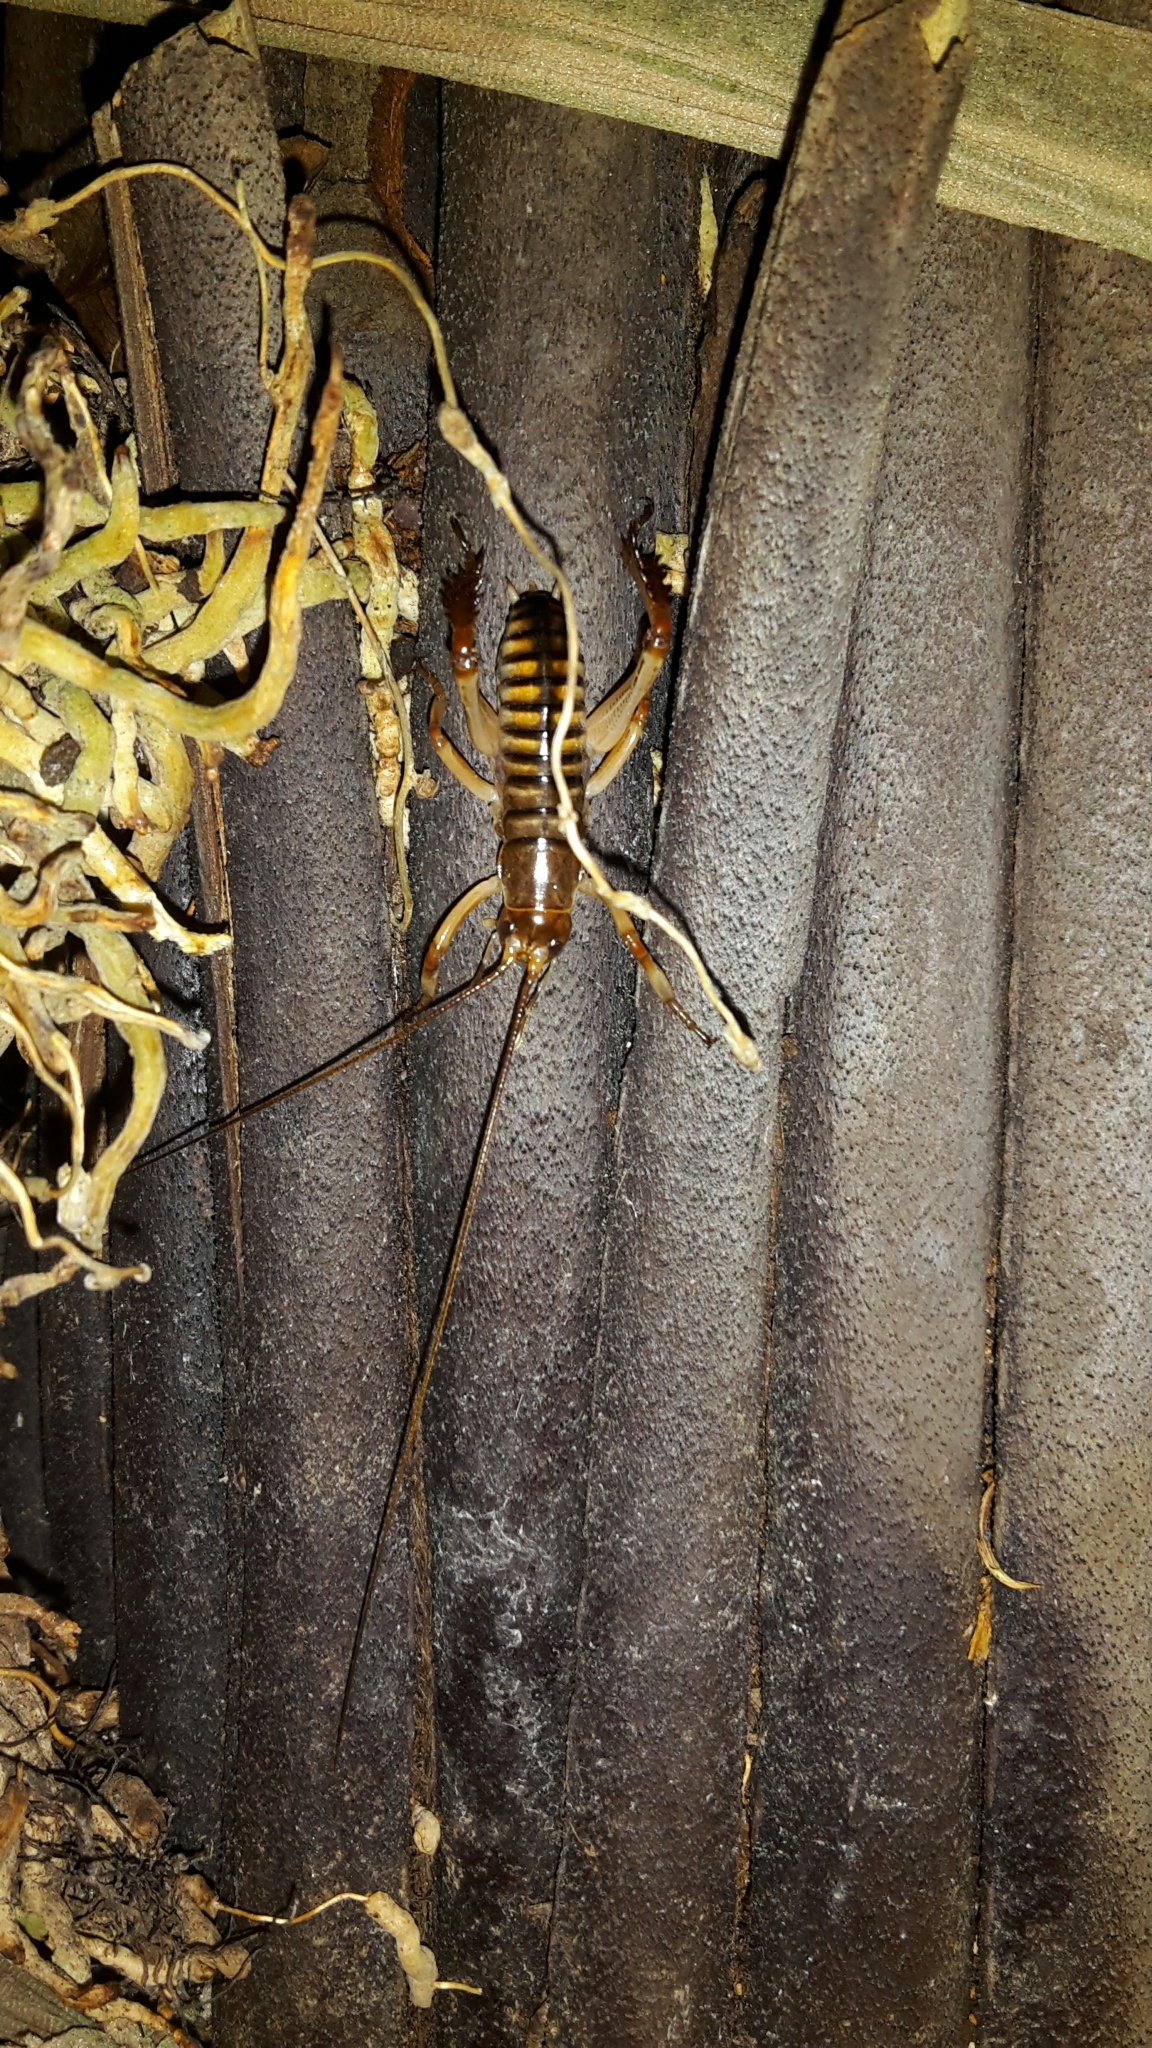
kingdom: Animalia
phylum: Arthropoda
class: Insecta
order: Orthoptera
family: Anostostomatidae
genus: Hemideina
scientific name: Hemideina crassidens
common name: Wellington tree weta
